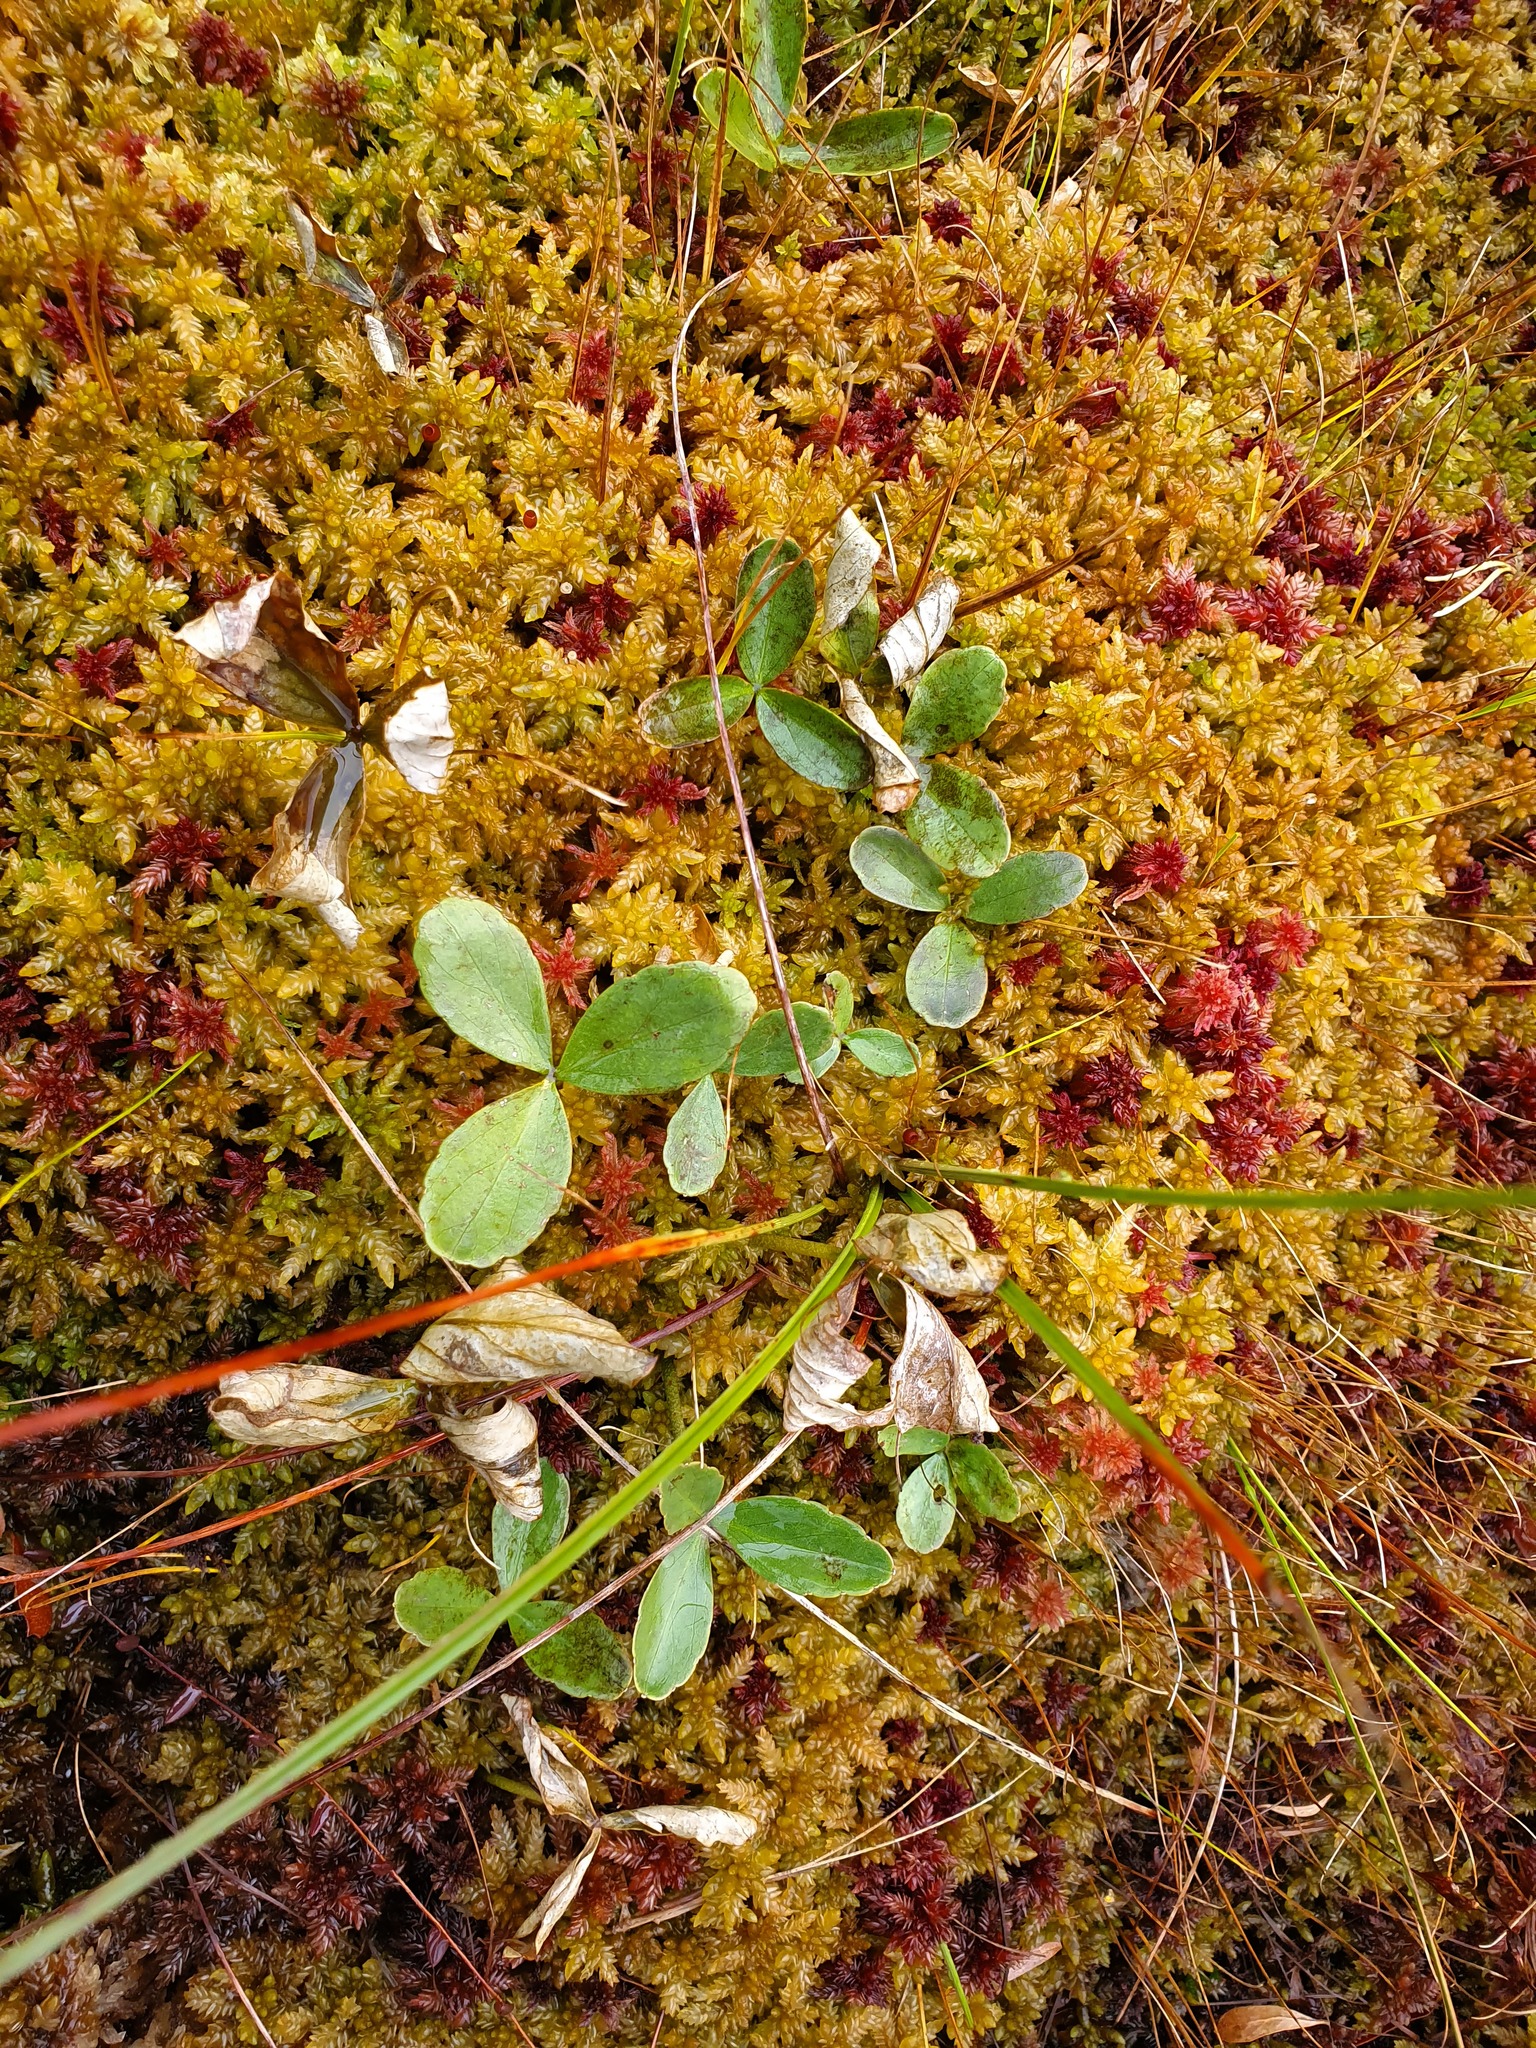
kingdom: Plantae
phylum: Tracheophyta
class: Magnoliopsida
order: Asterales
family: Menyanthaceae
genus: Menyanthes
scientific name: Menyanthes trifoliata
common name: Bogbean
